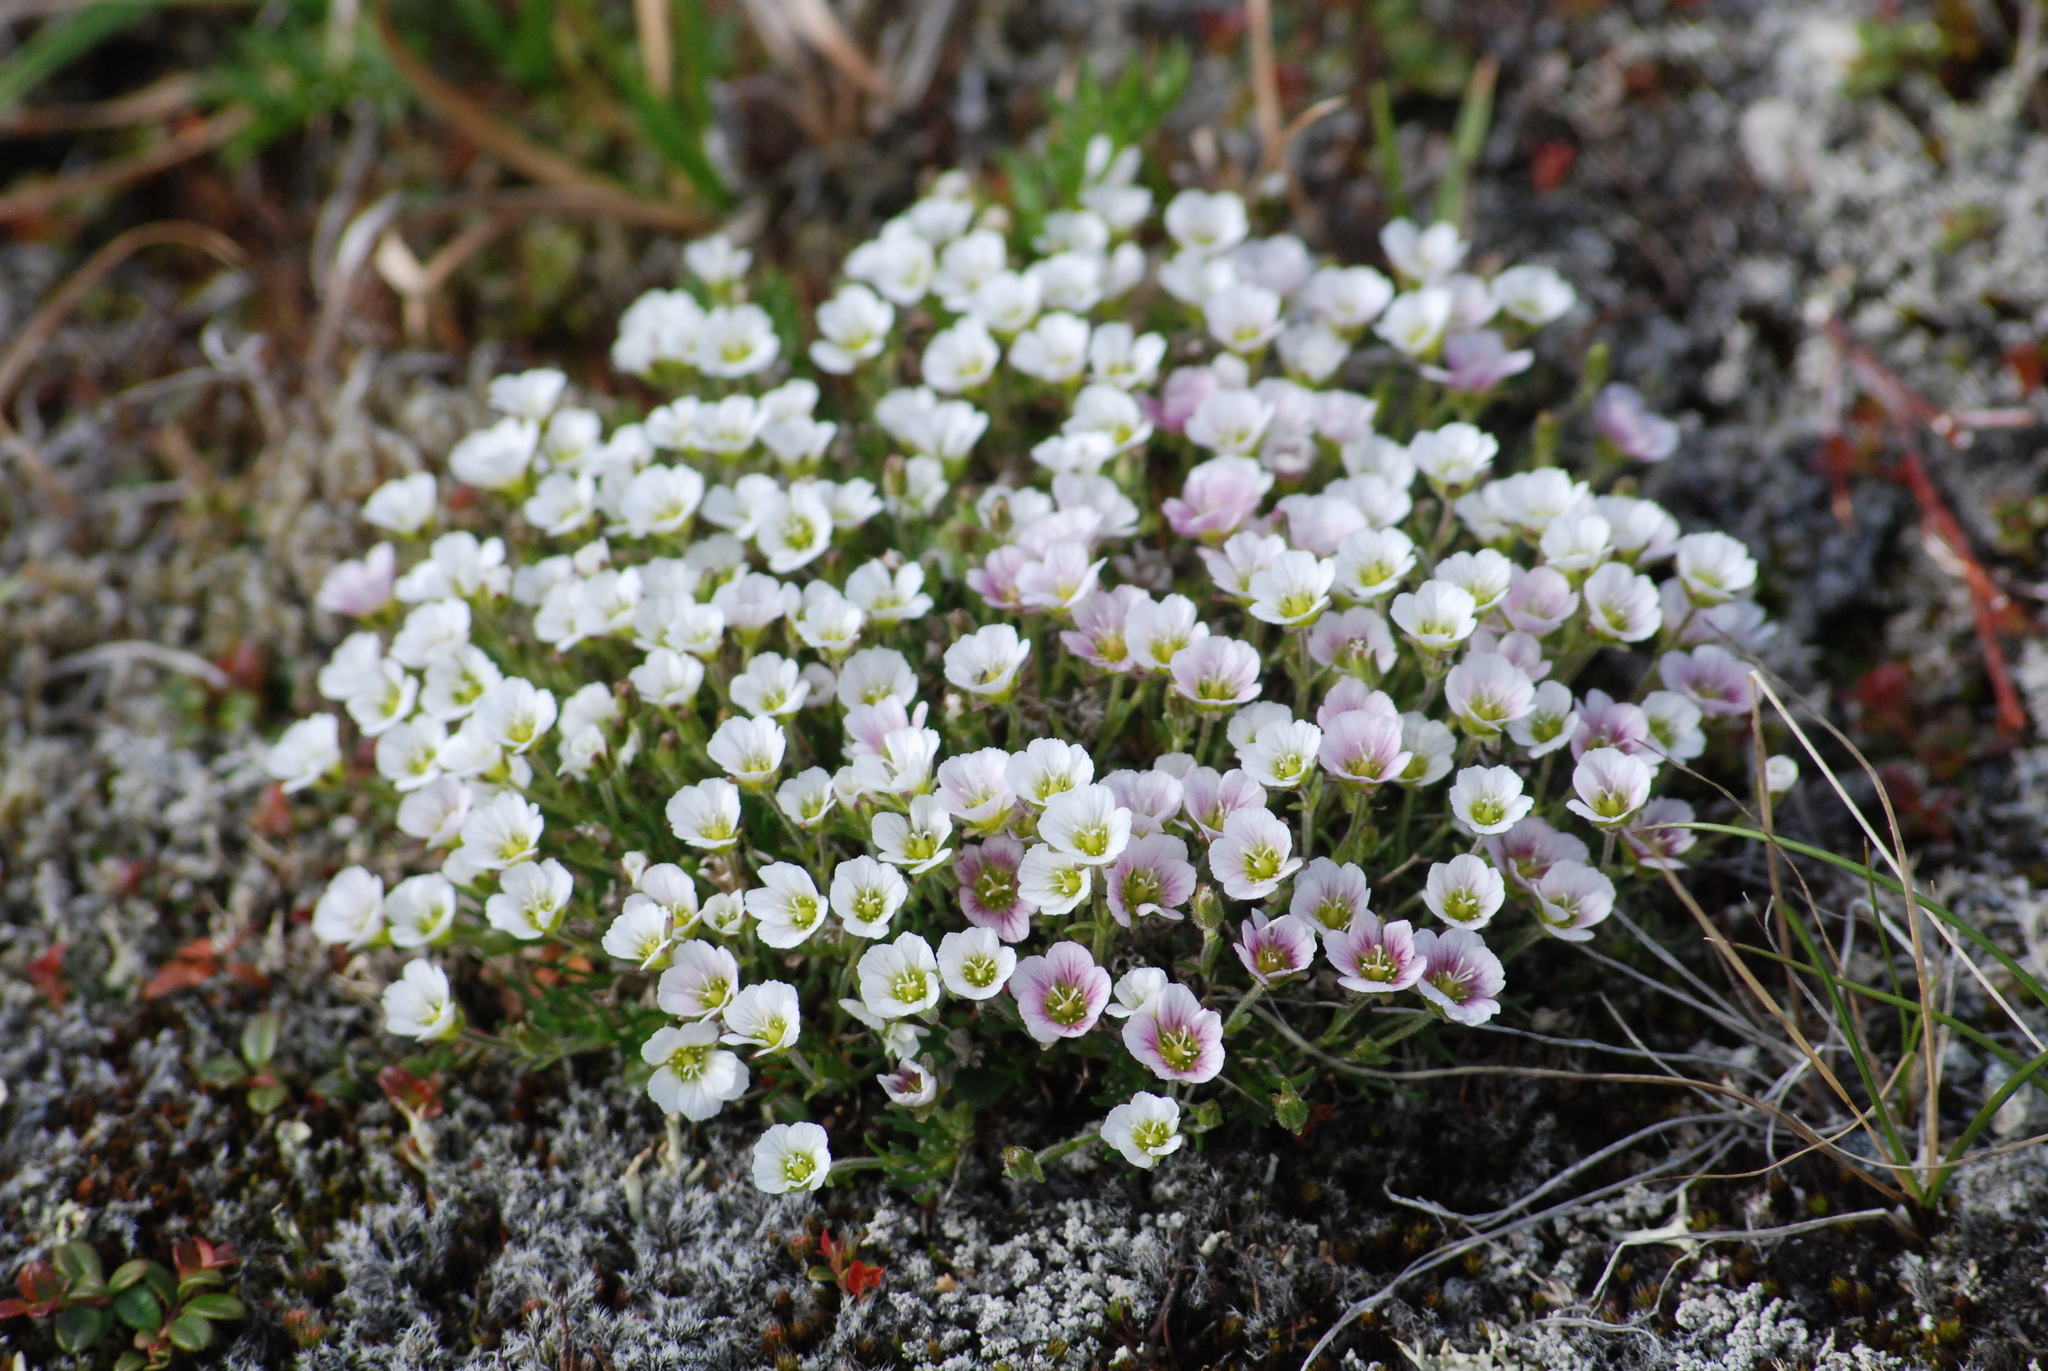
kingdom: Plantae
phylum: Tracheophyta
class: Magnoliopsida
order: Caryophyllales
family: Caryophyllaceae
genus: Cherleria
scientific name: Cherleria arctica
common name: Arctic sandwort
